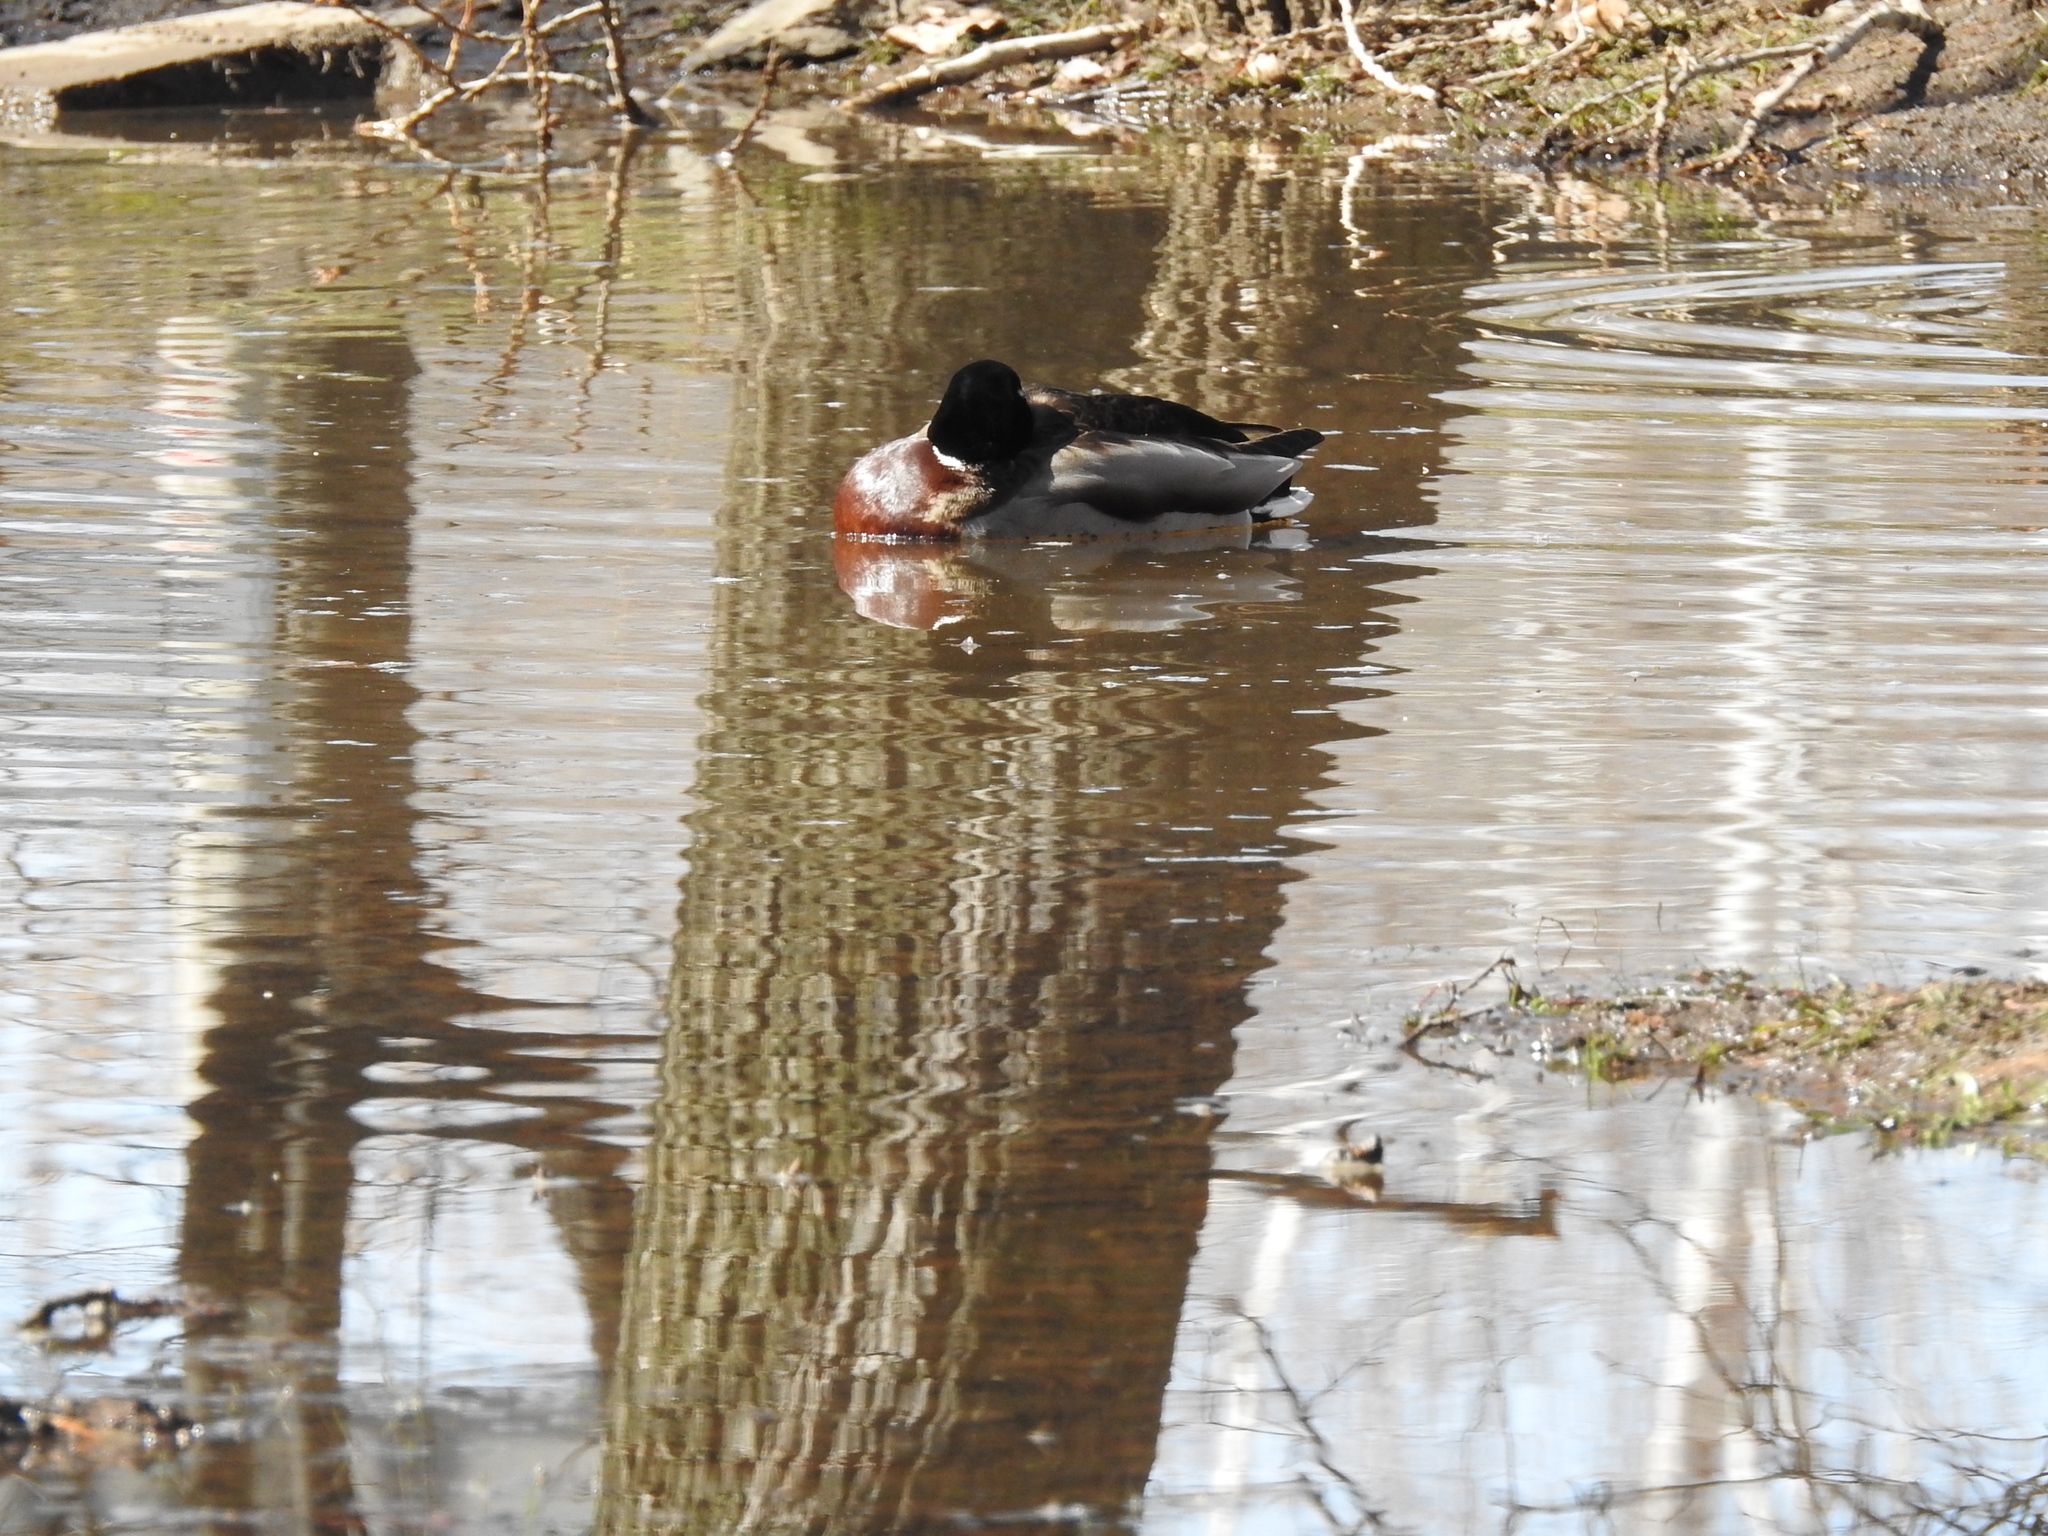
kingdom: Animalia
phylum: Chordata
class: Aves
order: Anseriformes
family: Anatidae
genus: Anas
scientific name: Anas platyrhynchos
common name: Mallard
